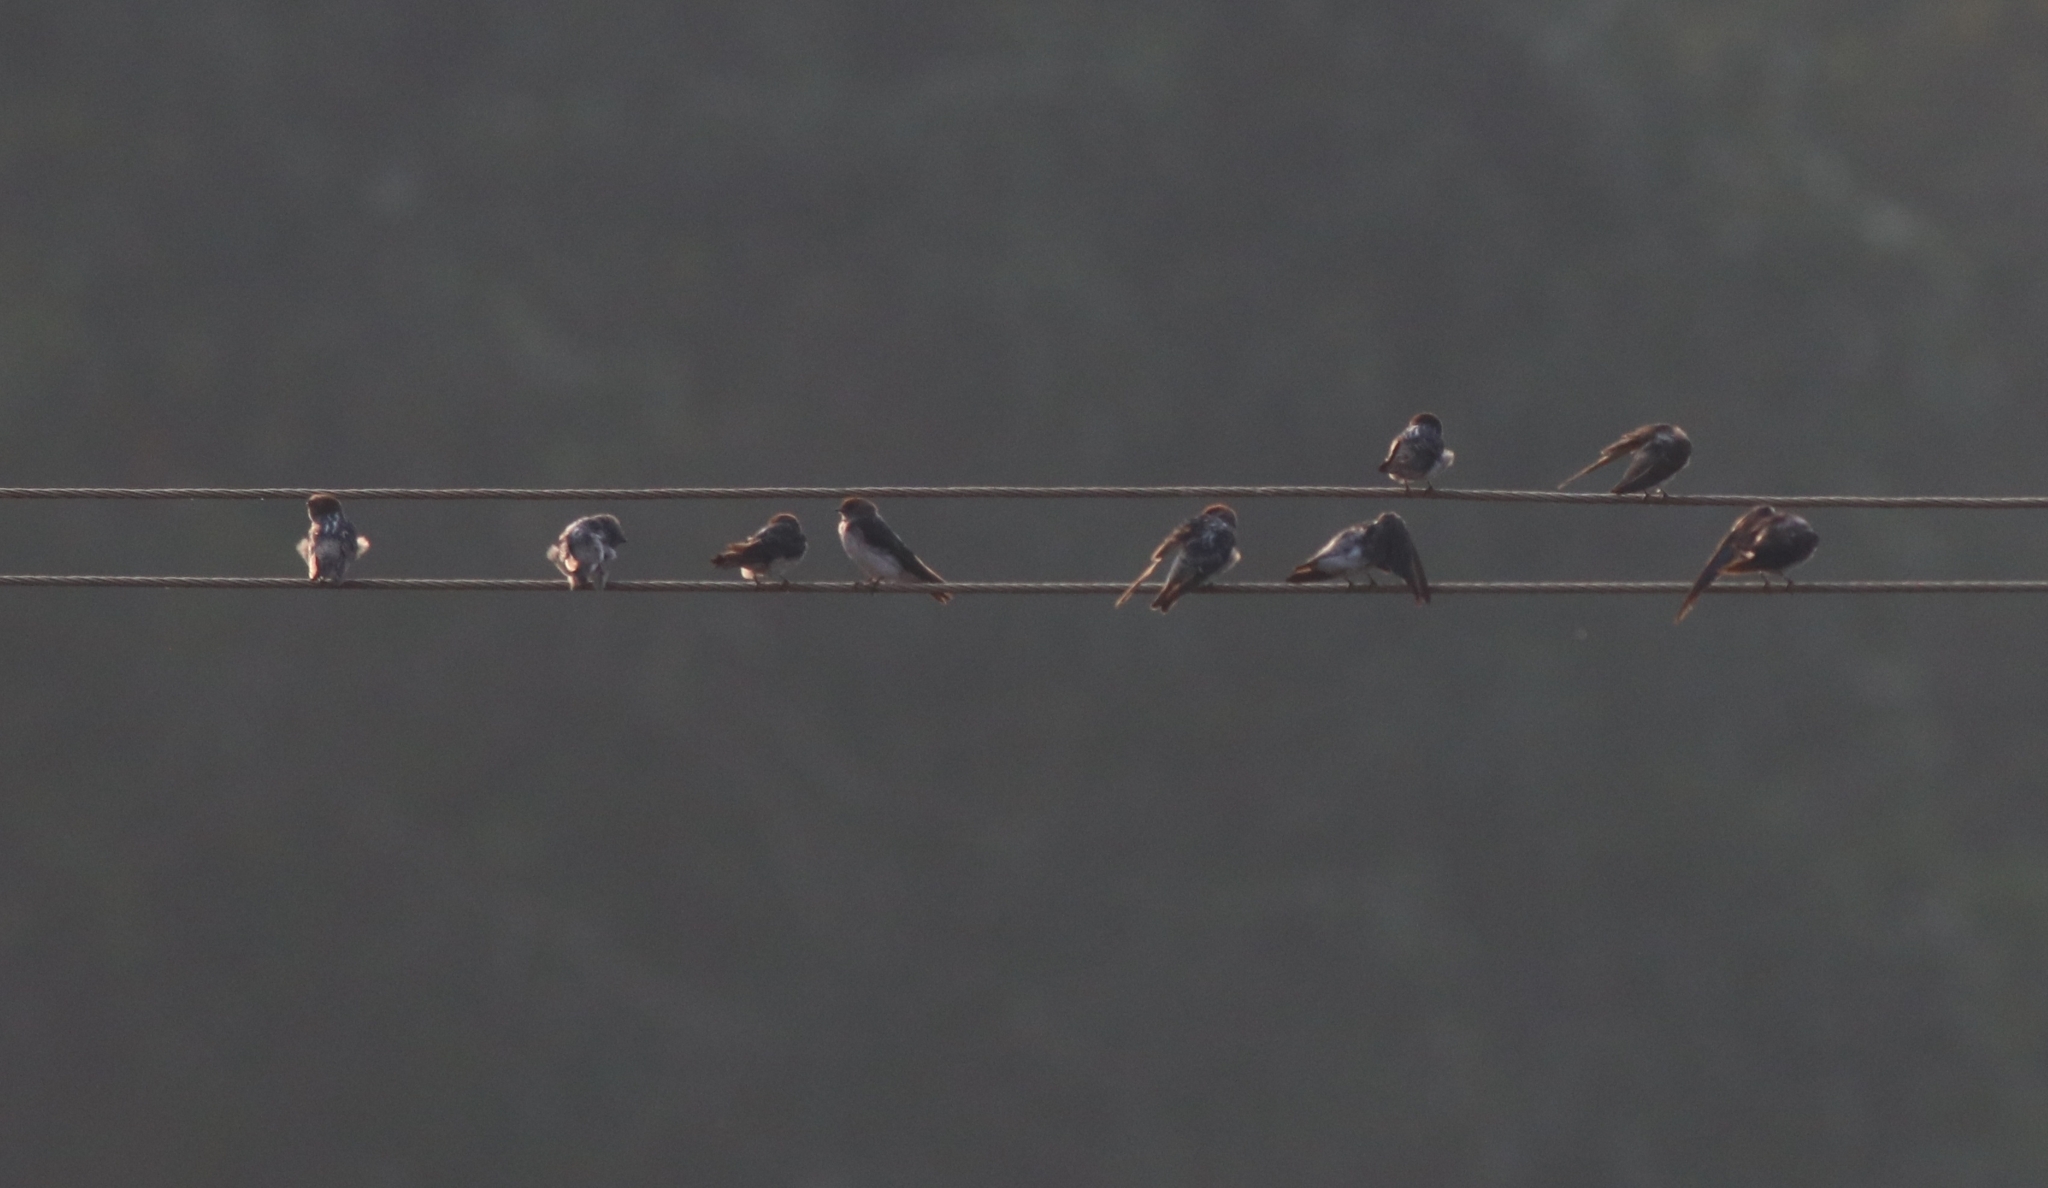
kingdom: Animalia
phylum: Chordata
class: Aves
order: Passeriformes
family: Hirundinidae
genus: Petrochelidon
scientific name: Petrochelidon fluvicola
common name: Streak-throated swallow
